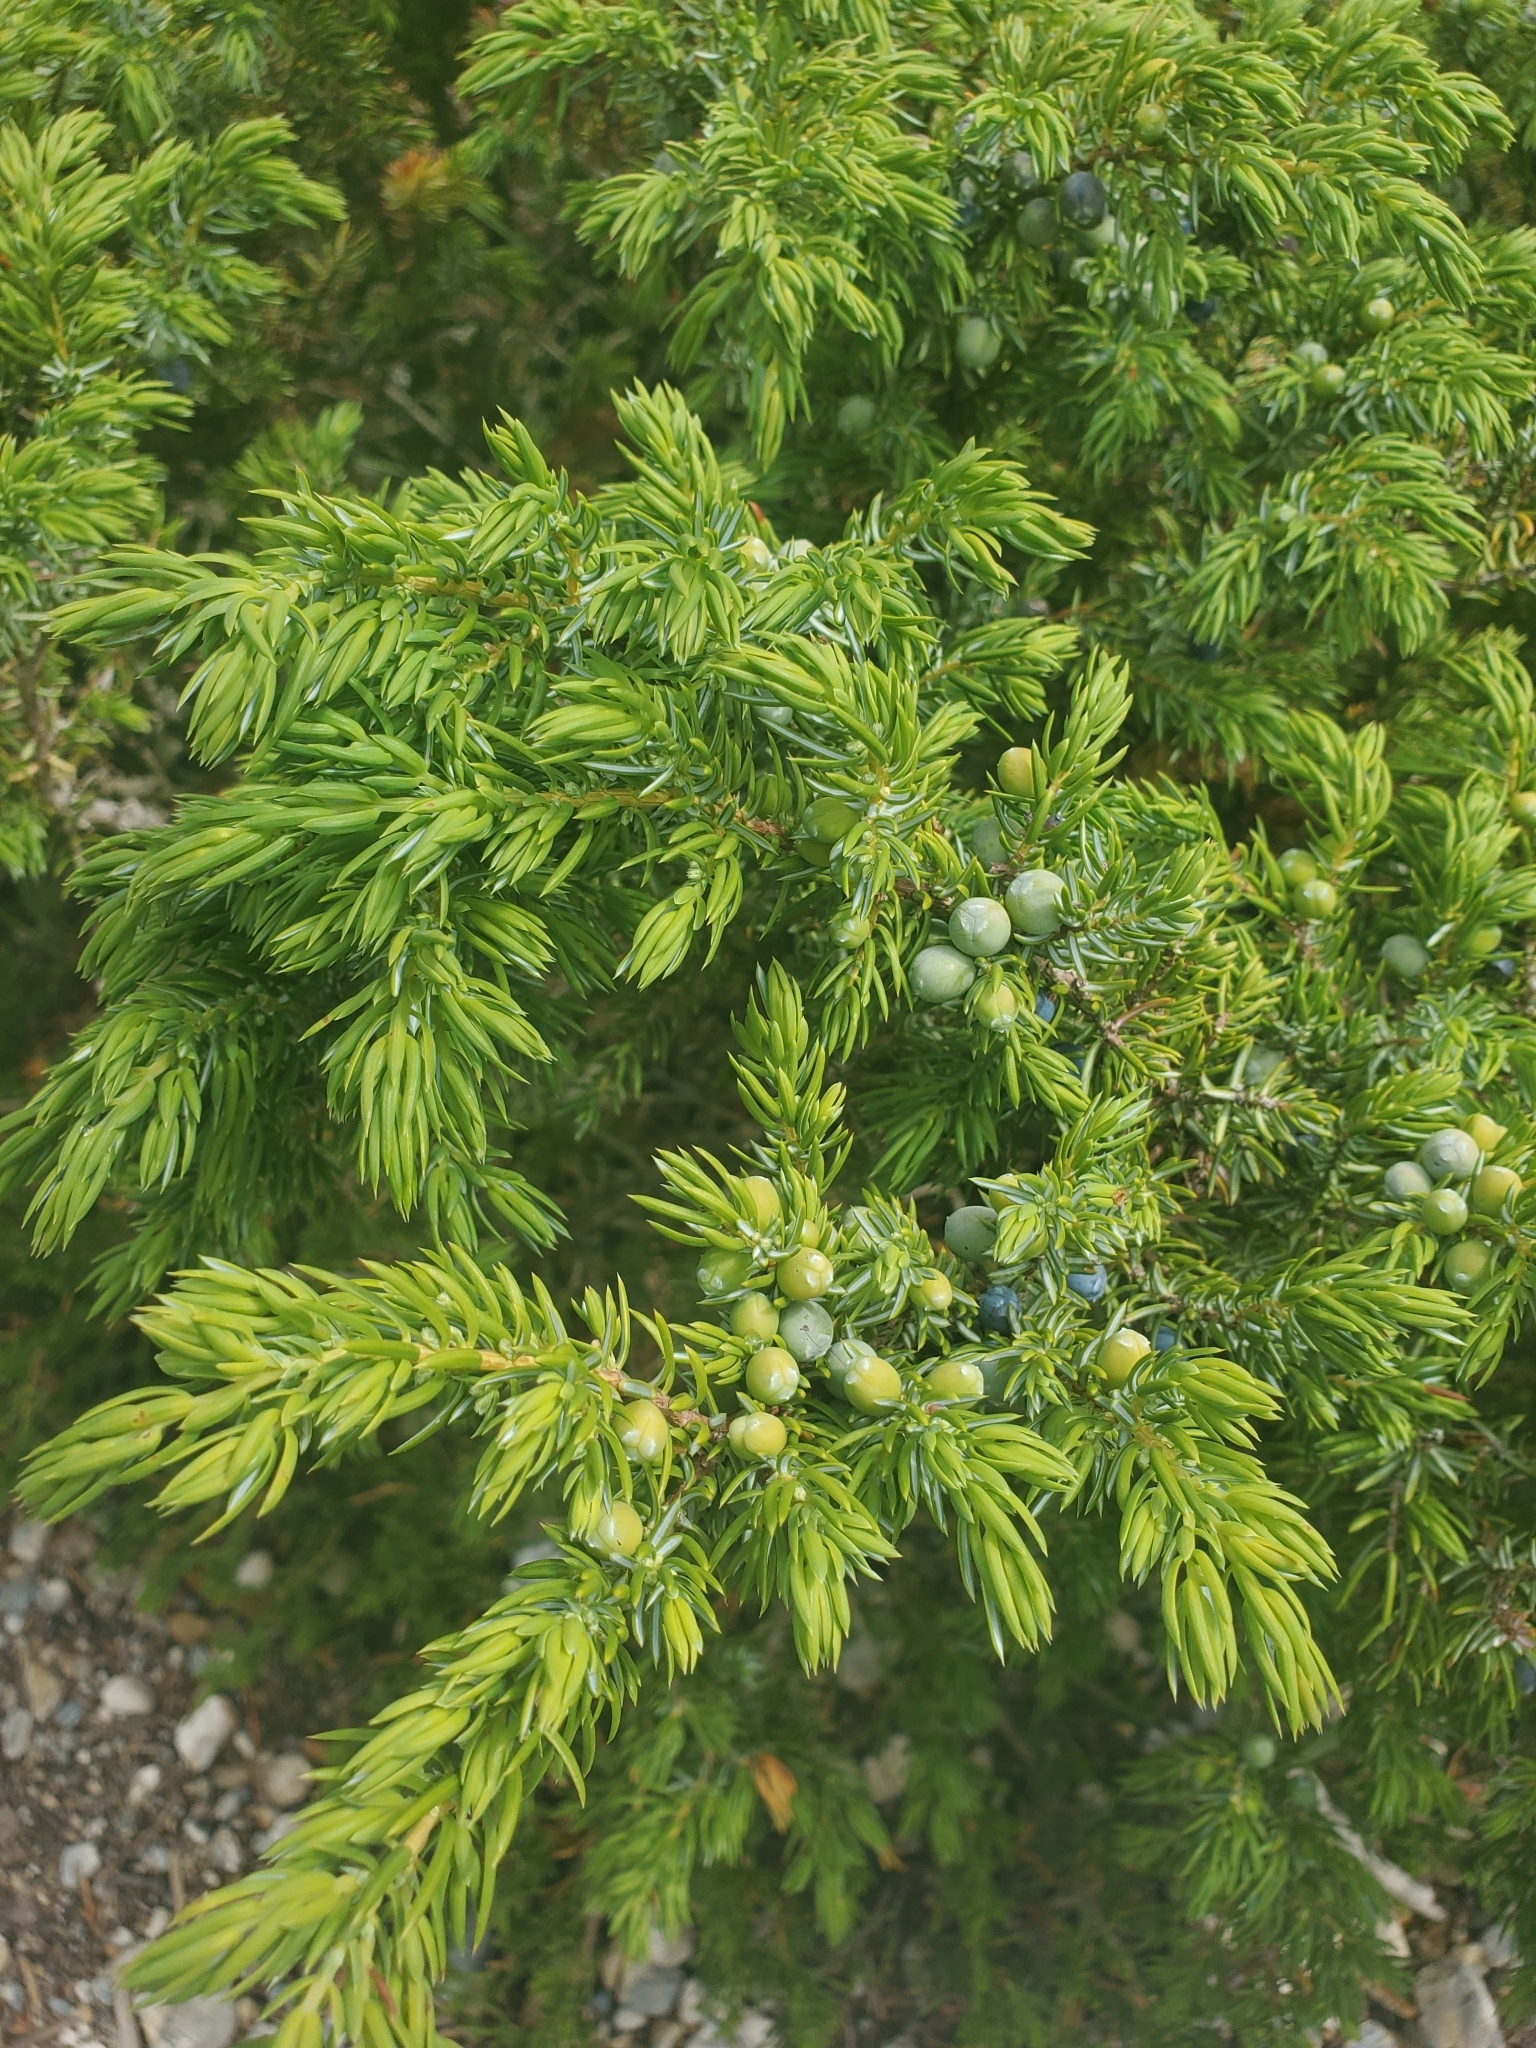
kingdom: Plantae
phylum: Tracheophyta
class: Pinopsida
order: Pinales
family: Cupressaceae
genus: Juniperus
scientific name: Juniperus communis
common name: Common juniper
